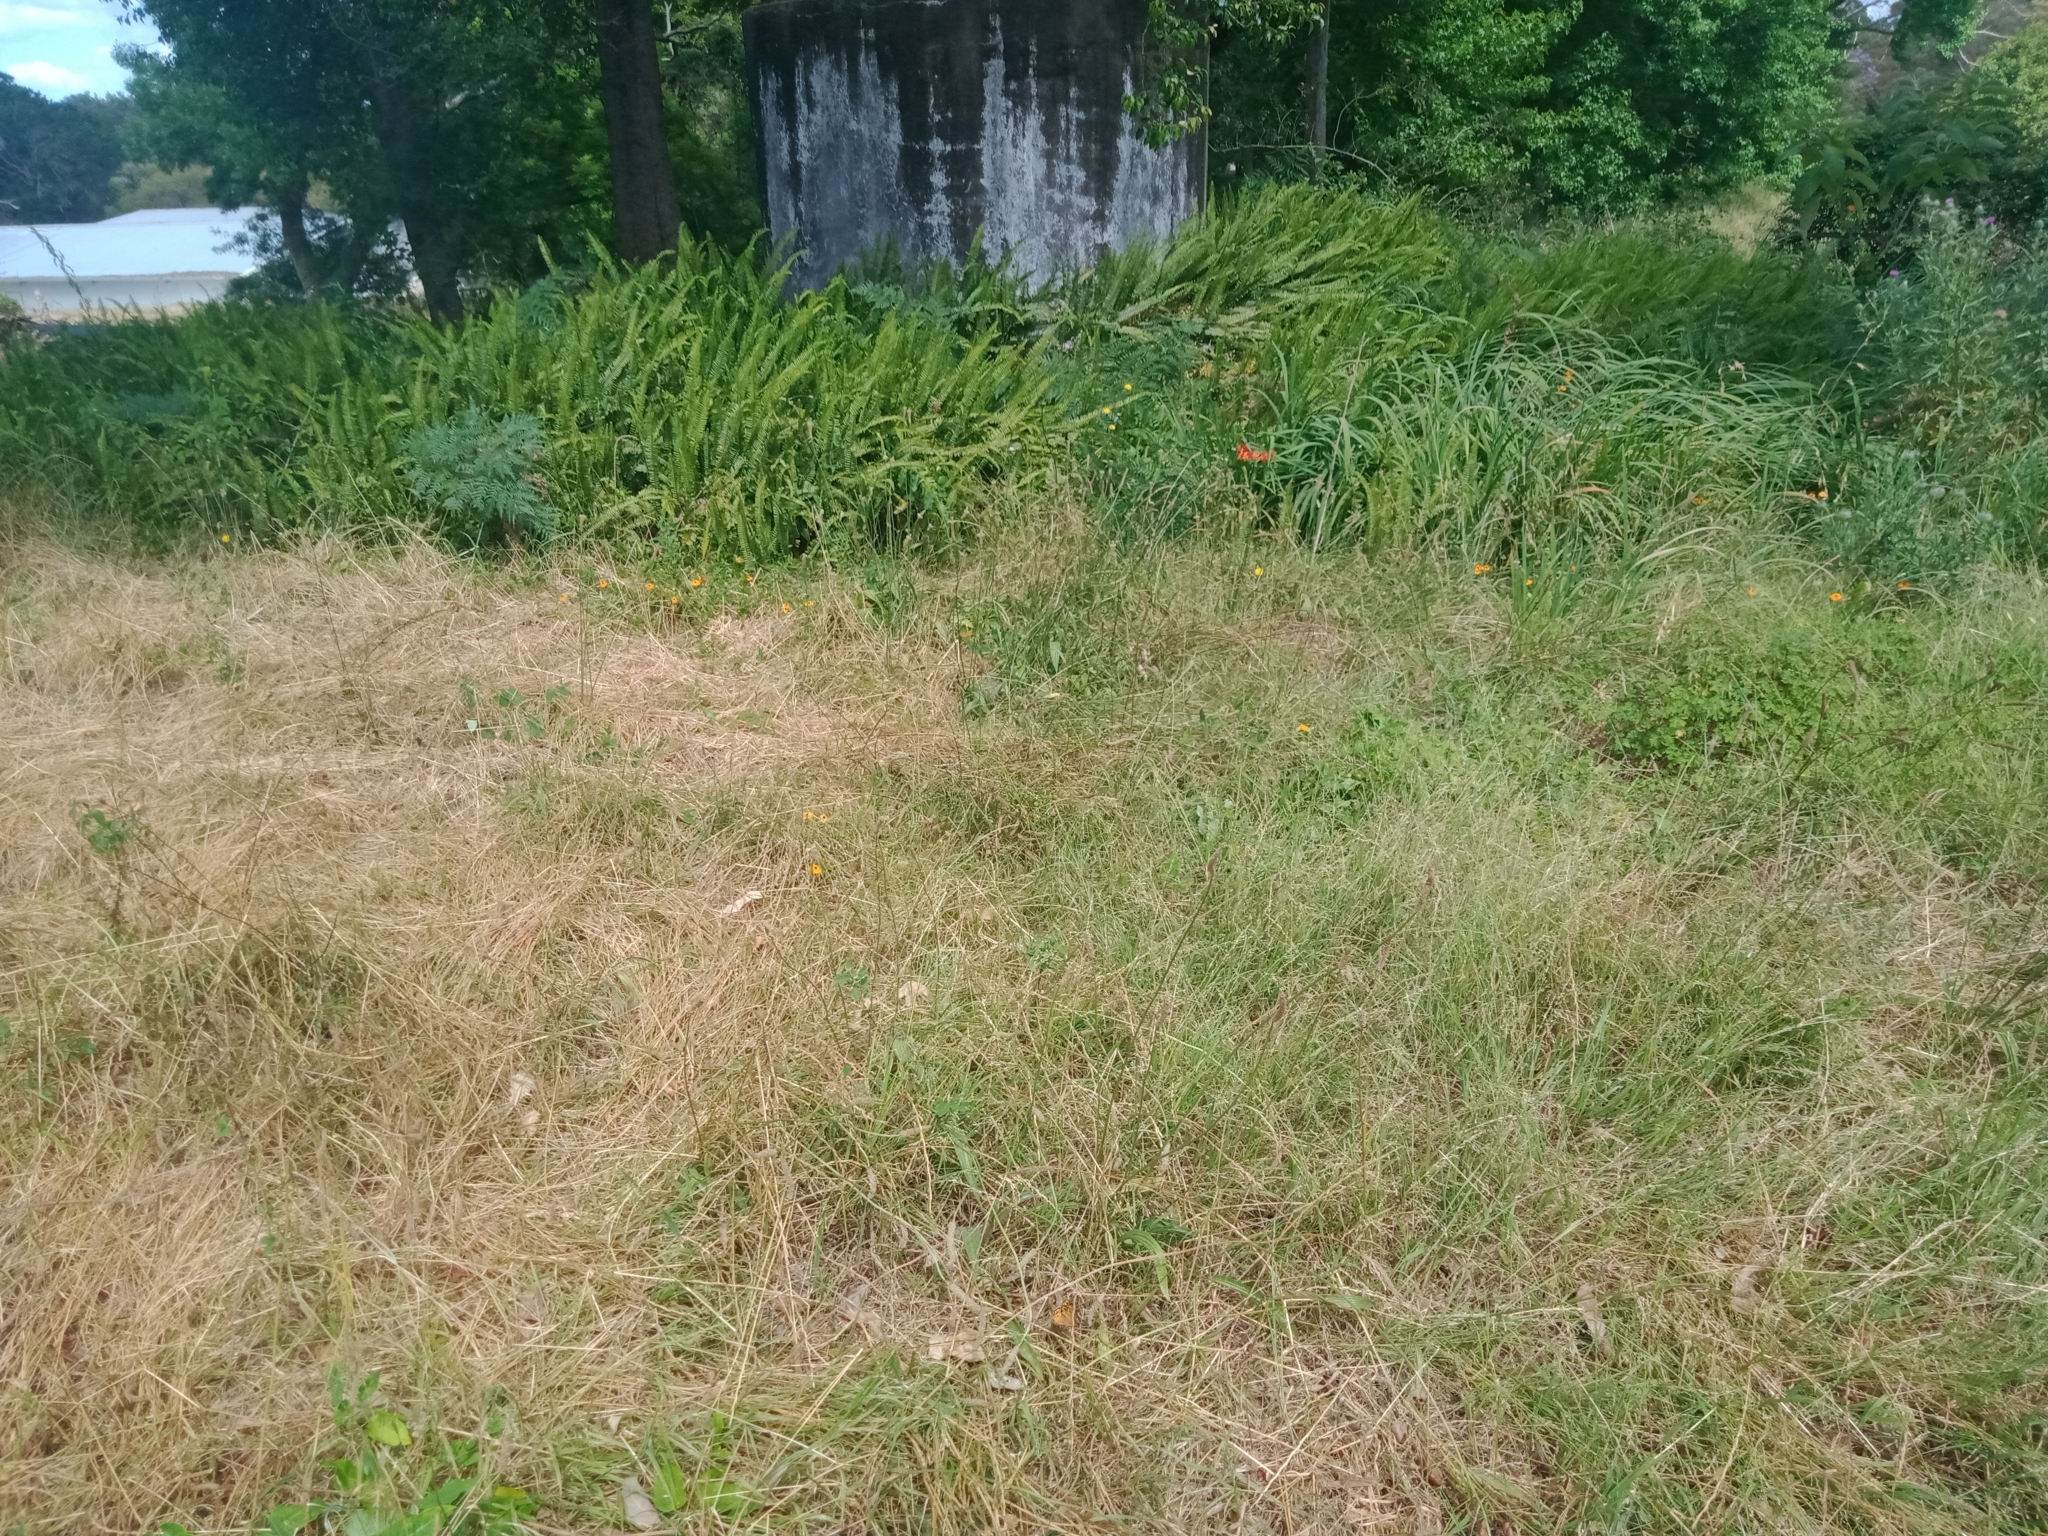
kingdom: Animalia
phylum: Arthropoda
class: Insecta
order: Lepidoptera
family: Nymphalidae
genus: Heteronympha
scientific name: Heteronympha merope
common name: Common brown
